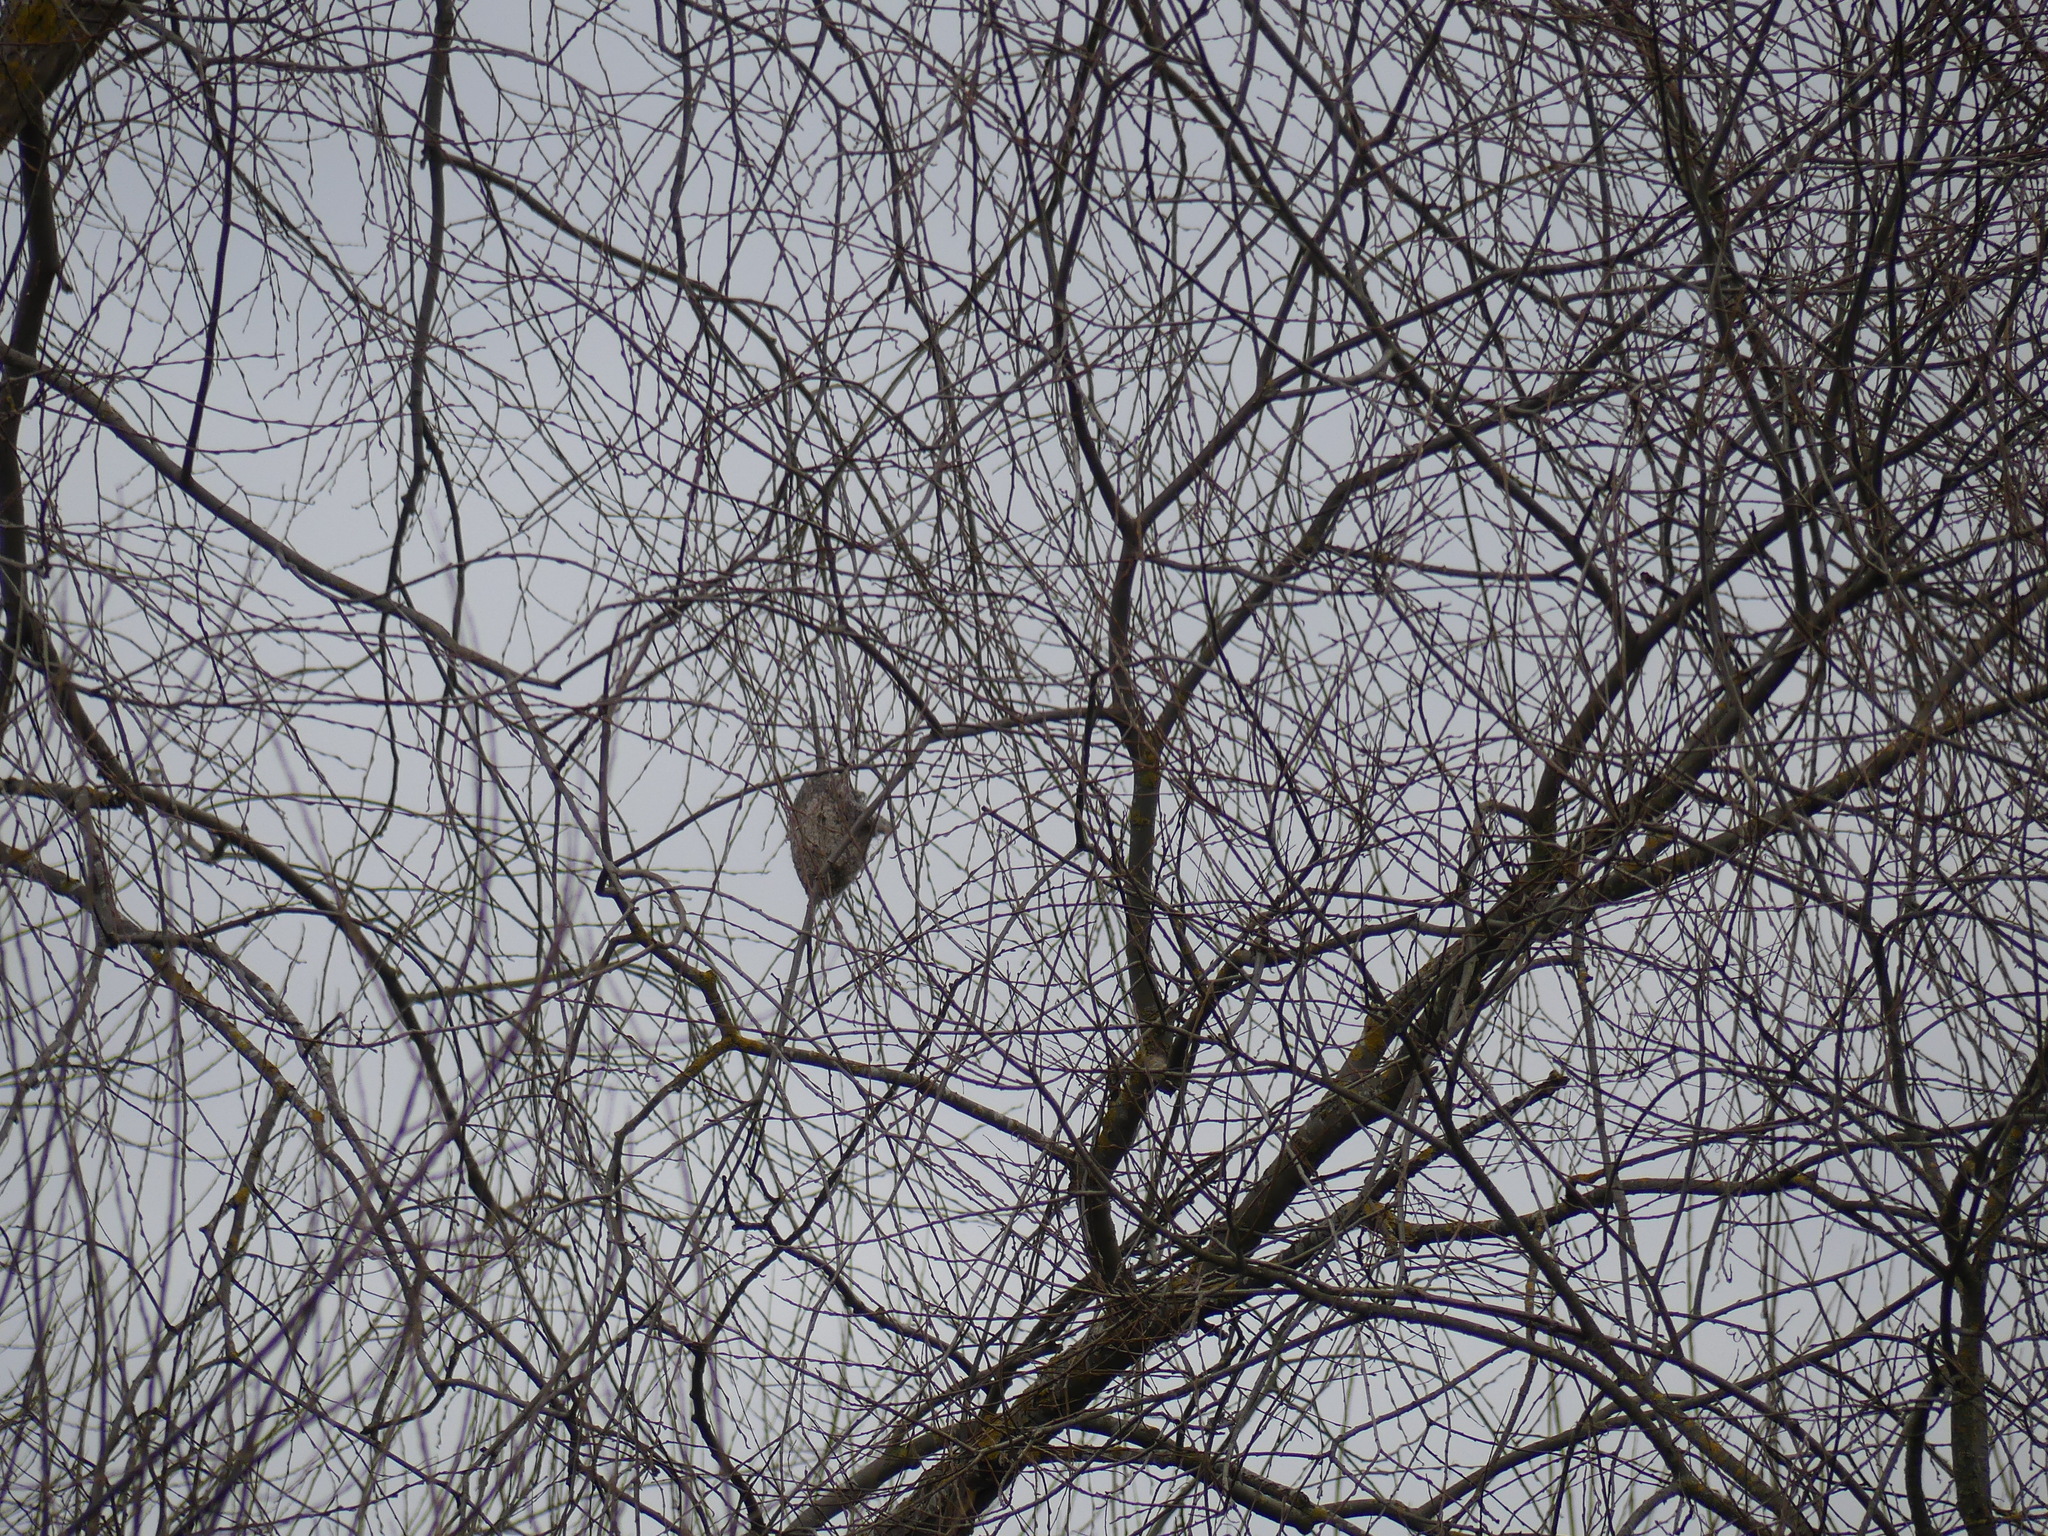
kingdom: Animalia
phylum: Chordata
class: Aves
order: Passeriformes
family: Remizidae
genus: Remiz
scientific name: Remiz pendulinus
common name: Eurasian penduline tit
